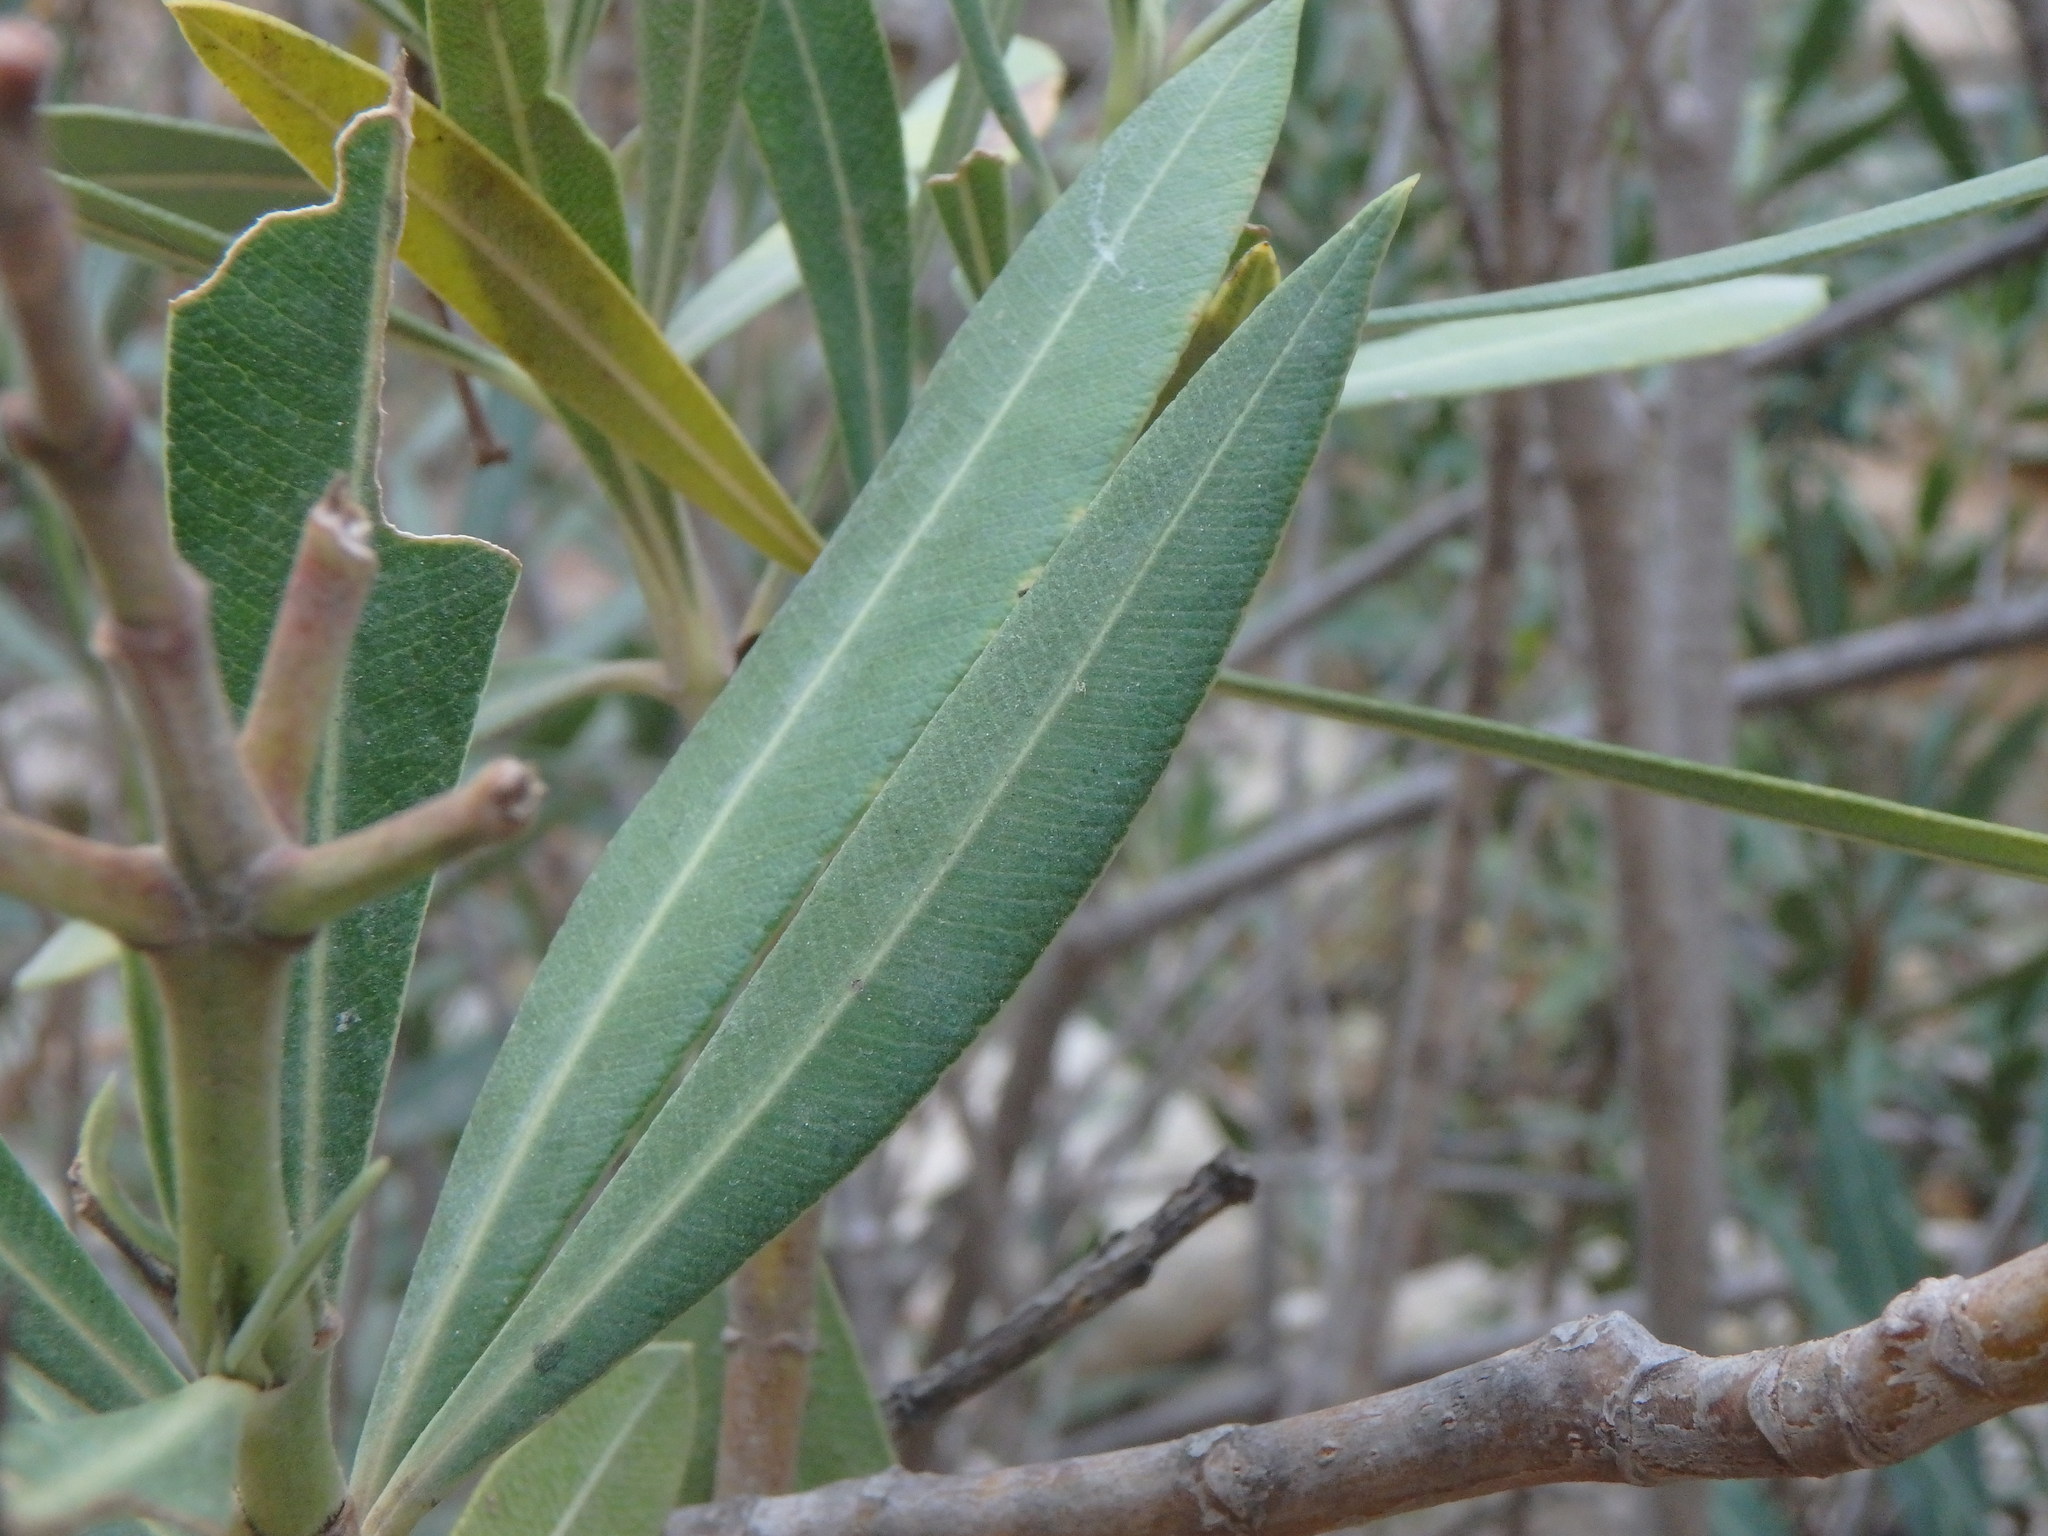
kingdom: Plantae
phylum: Tracheophyta
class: Magnoliopsida
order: Gentianales
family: Apocynaceae
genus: Nerium
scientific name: Nerium oleander
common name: Oleander
